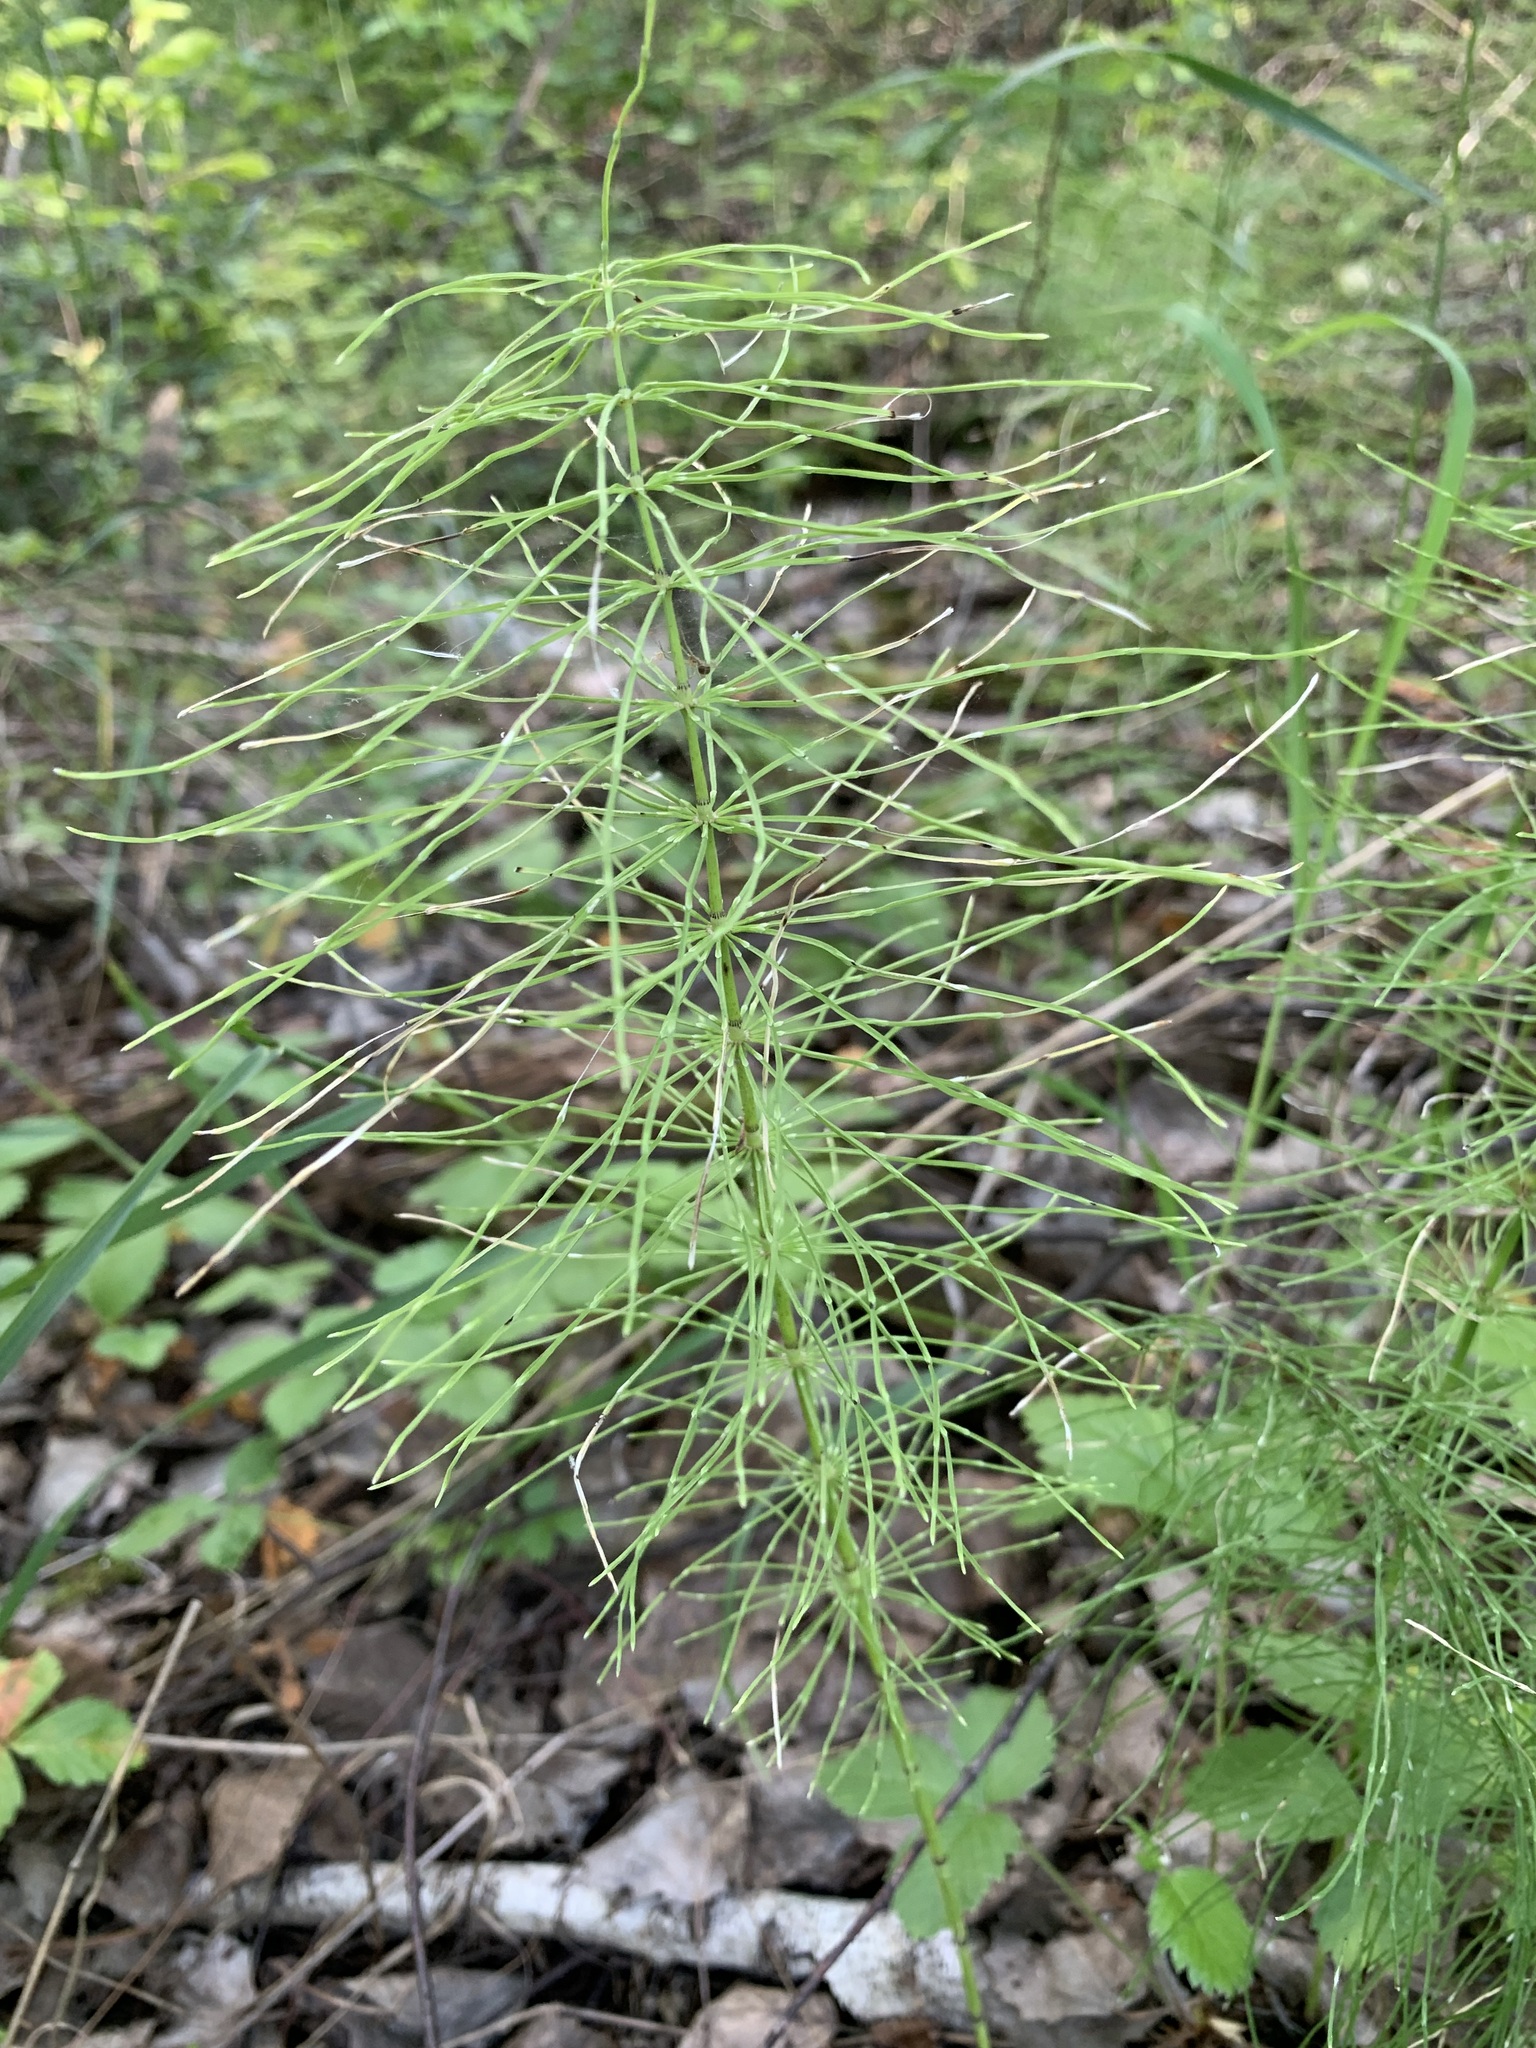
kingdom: Plantae
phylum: Tracheophyta
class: Polypodiopsida
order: Equisetales
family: Equisetaceae
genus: Equisetum
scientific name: Equisetum pratense
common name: Meadow horsetail
